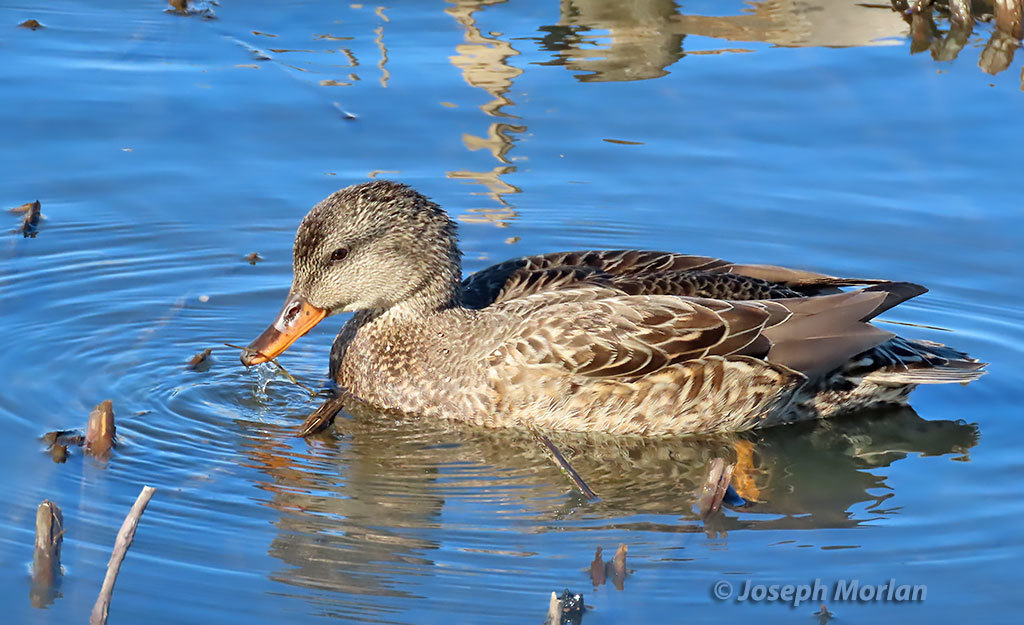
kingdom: Animalia
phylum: Chordata
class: Aves
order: Anseriformes
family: Anatidae
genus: Mareca
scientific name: Mareca strepera
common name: Gadwall
